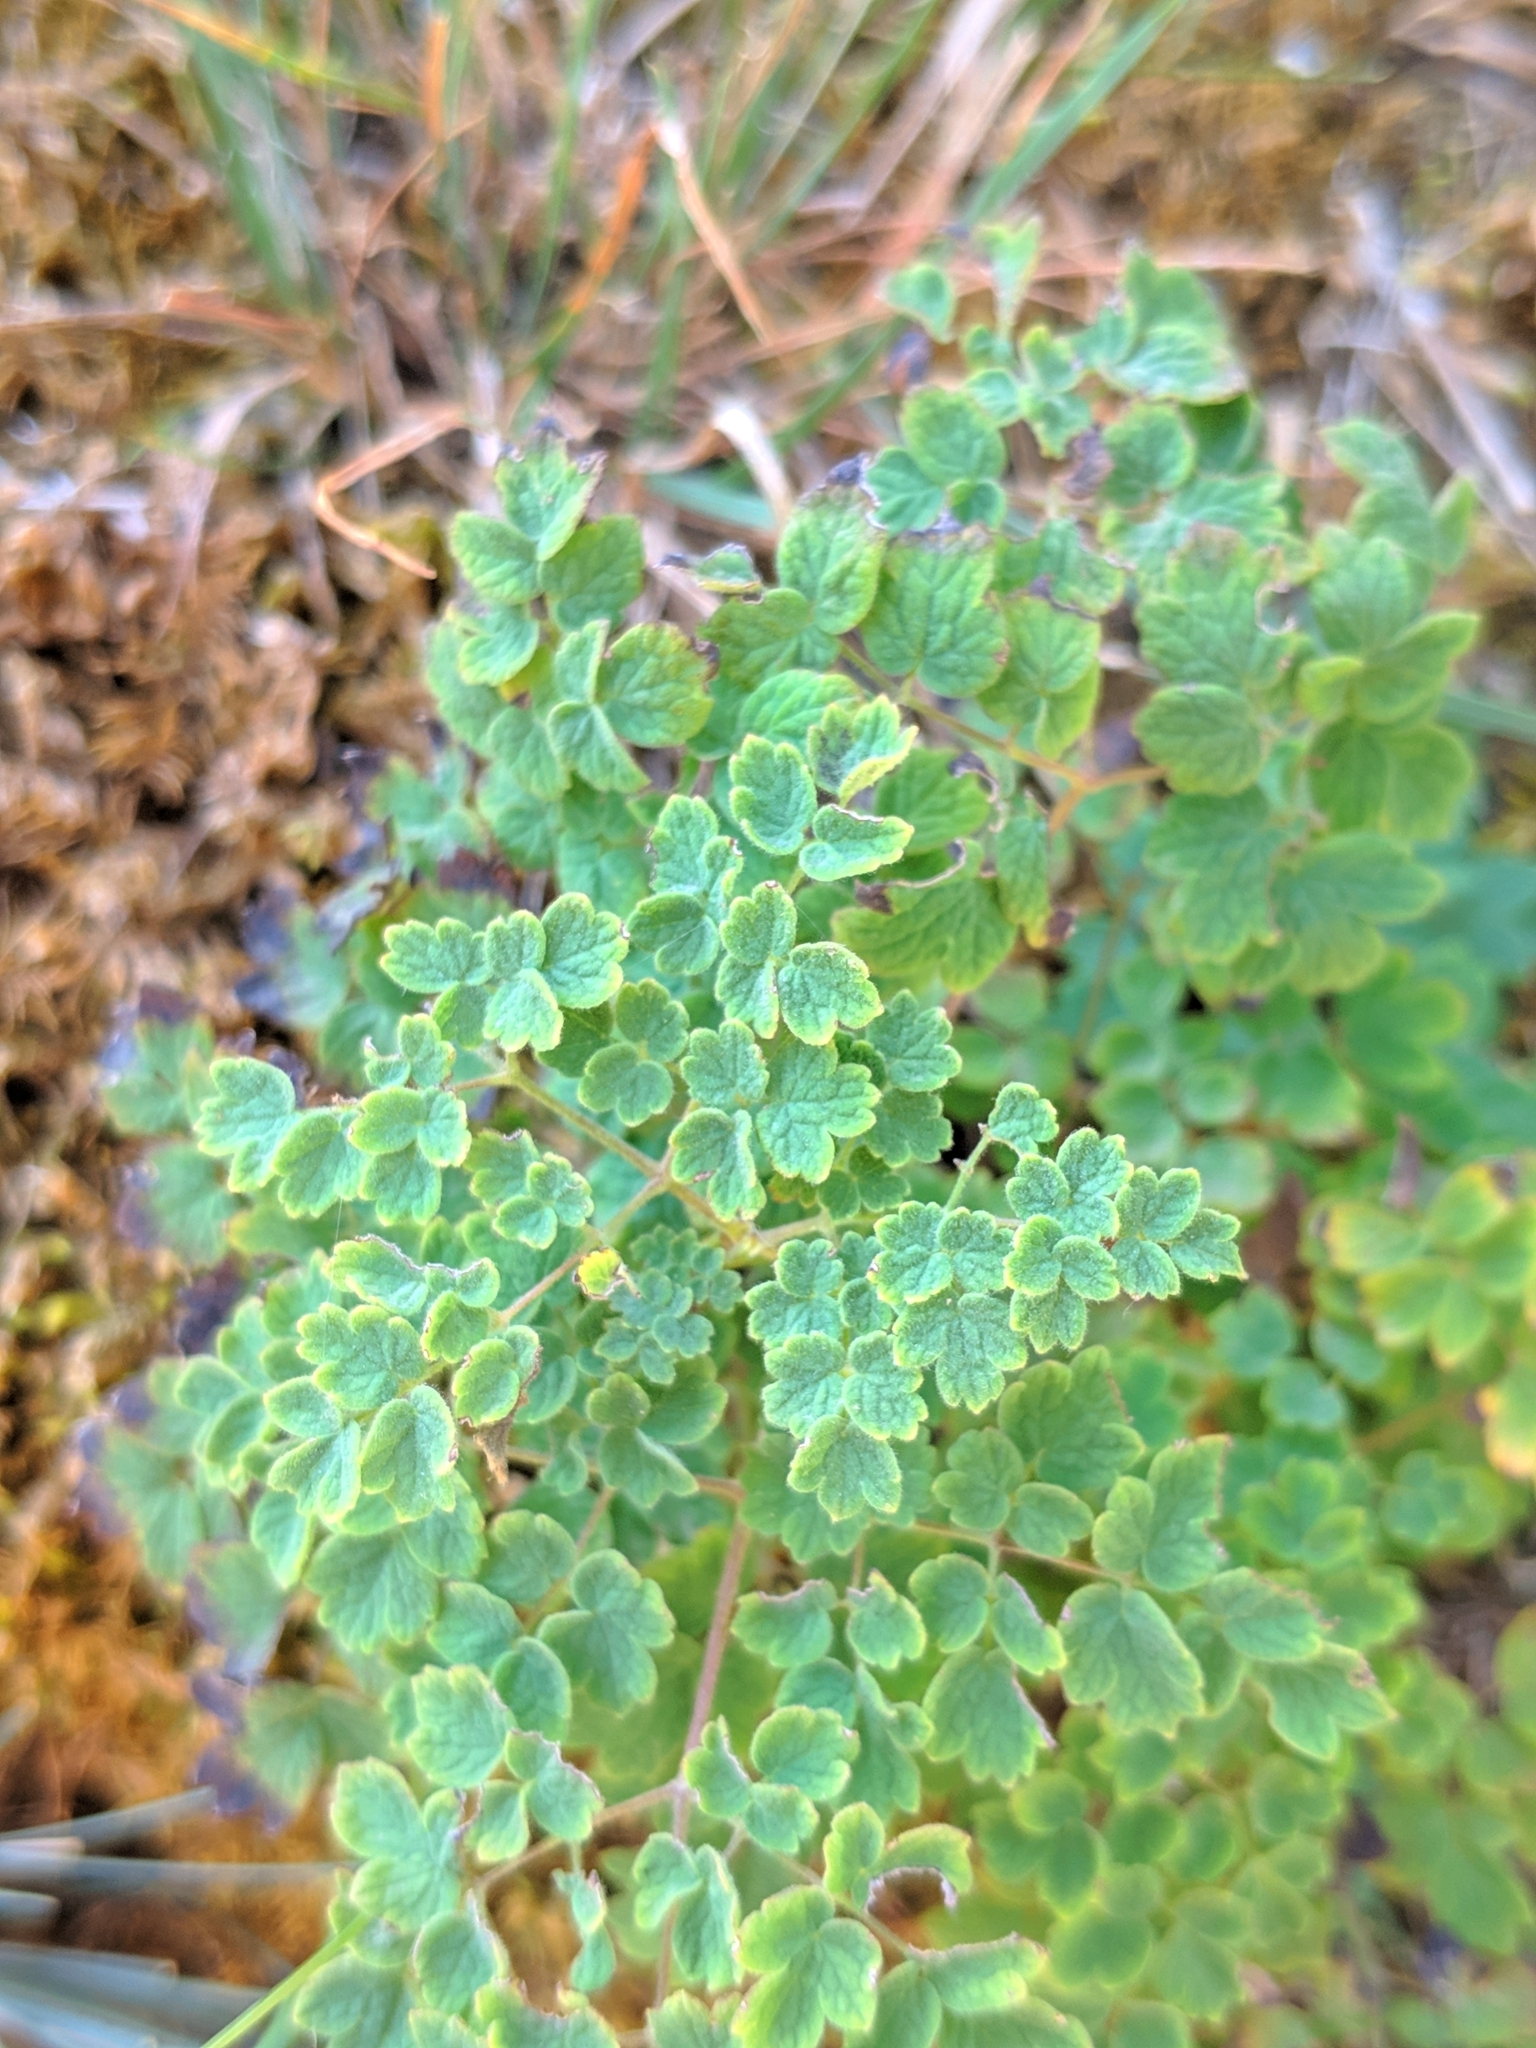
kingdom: Plantae
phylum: Tracheophyta
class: Magnoliopsida
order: Ranunculales
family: Ranunculaceae
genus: Thalictrum
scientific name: Thalictrum foetidum
